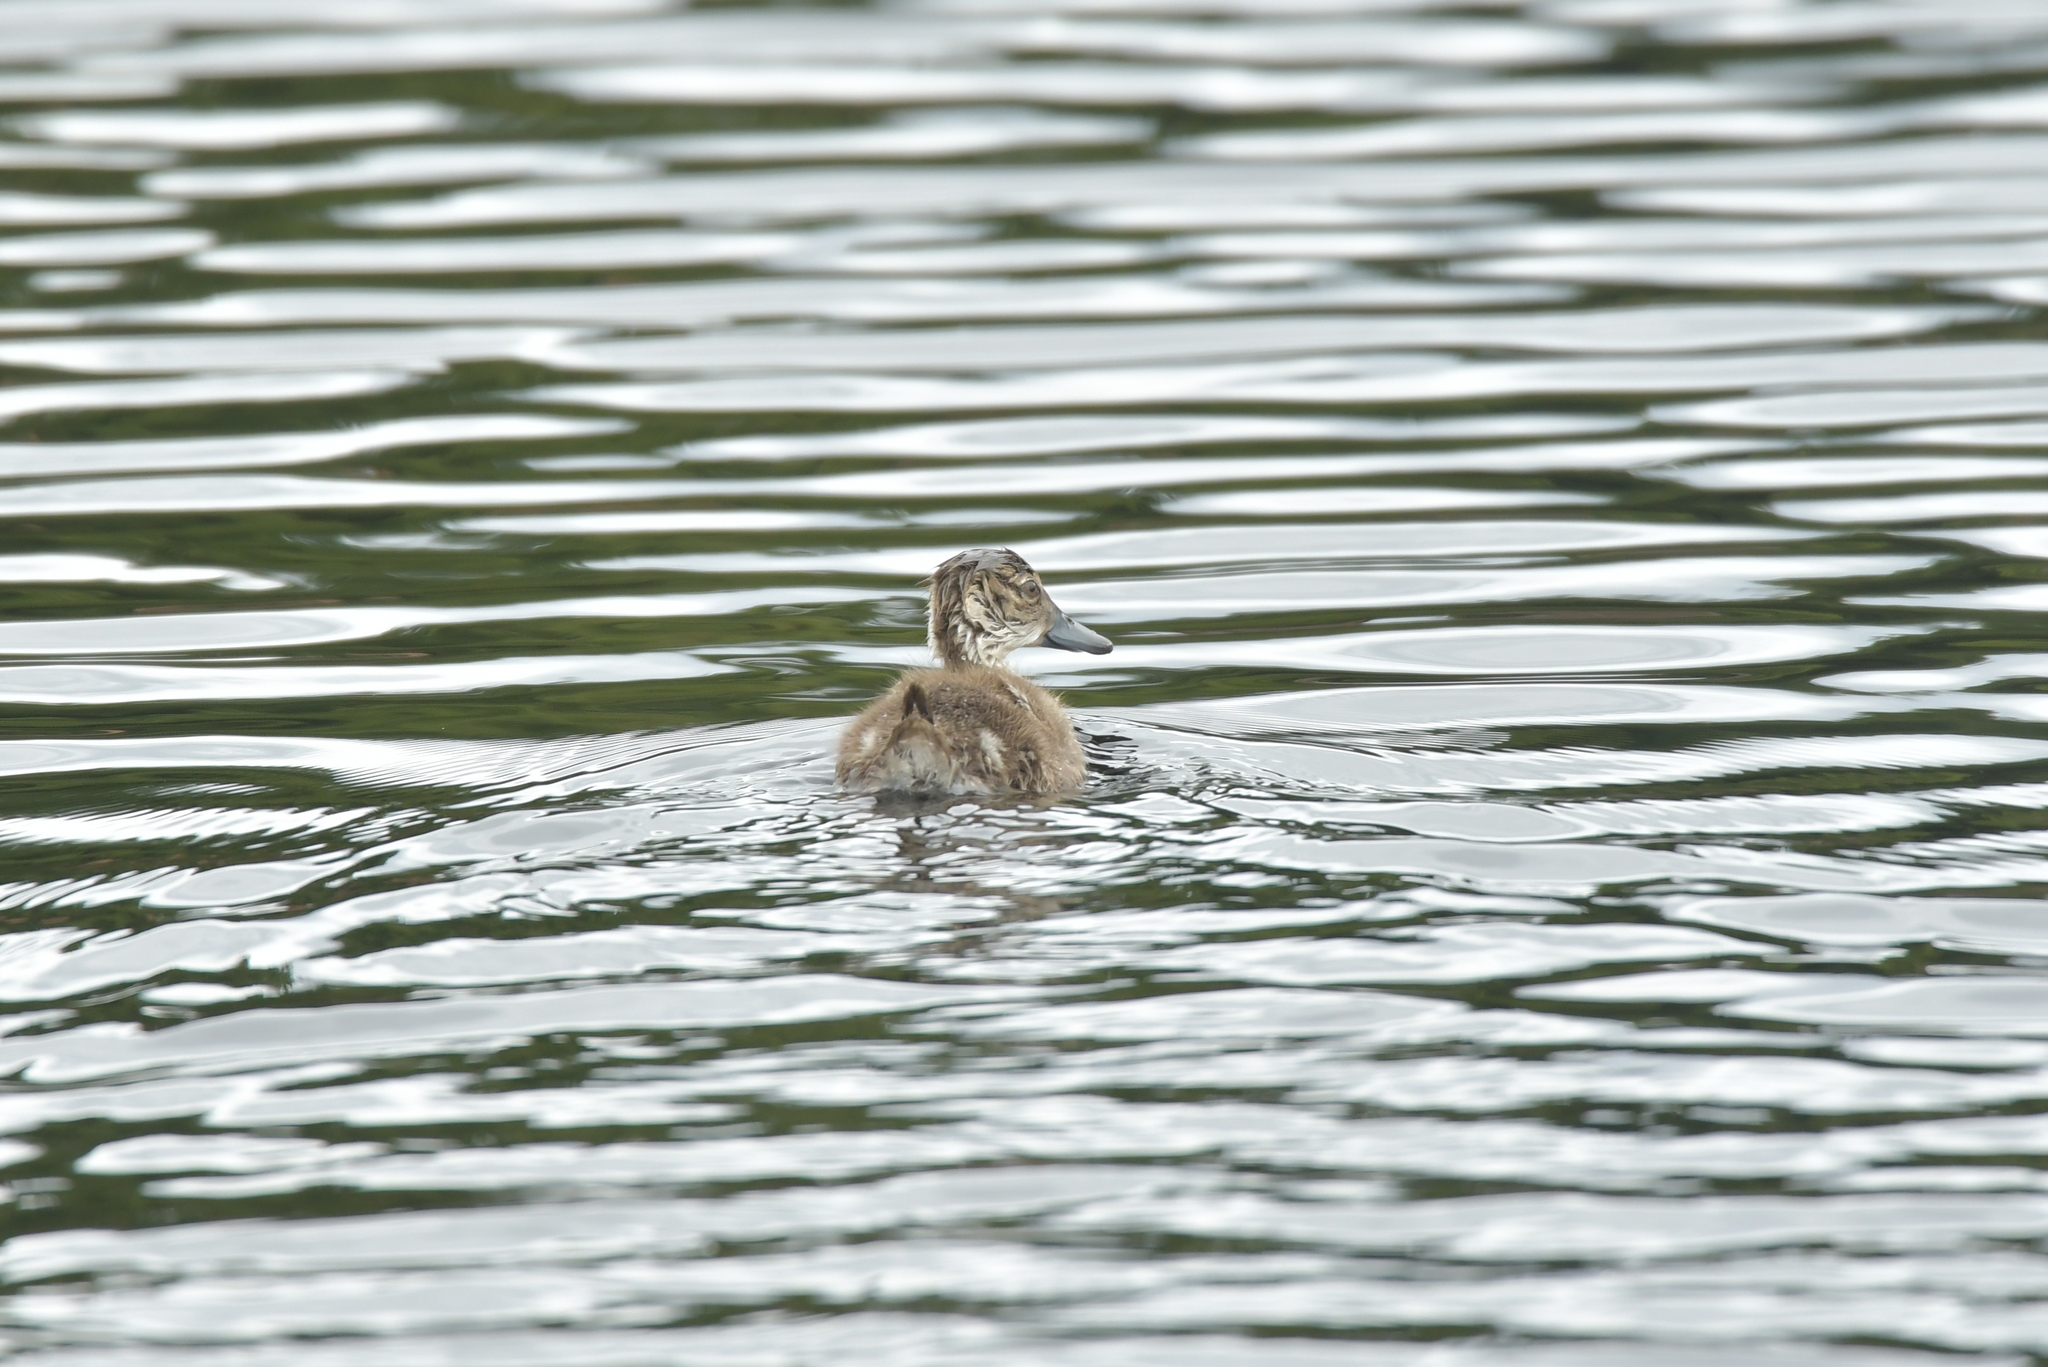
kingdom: Animalia
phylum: Chordata
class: Aves
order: Anseriformes
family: Anatidae
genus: Anas
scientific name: Anas gracilis
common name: Grey teal
